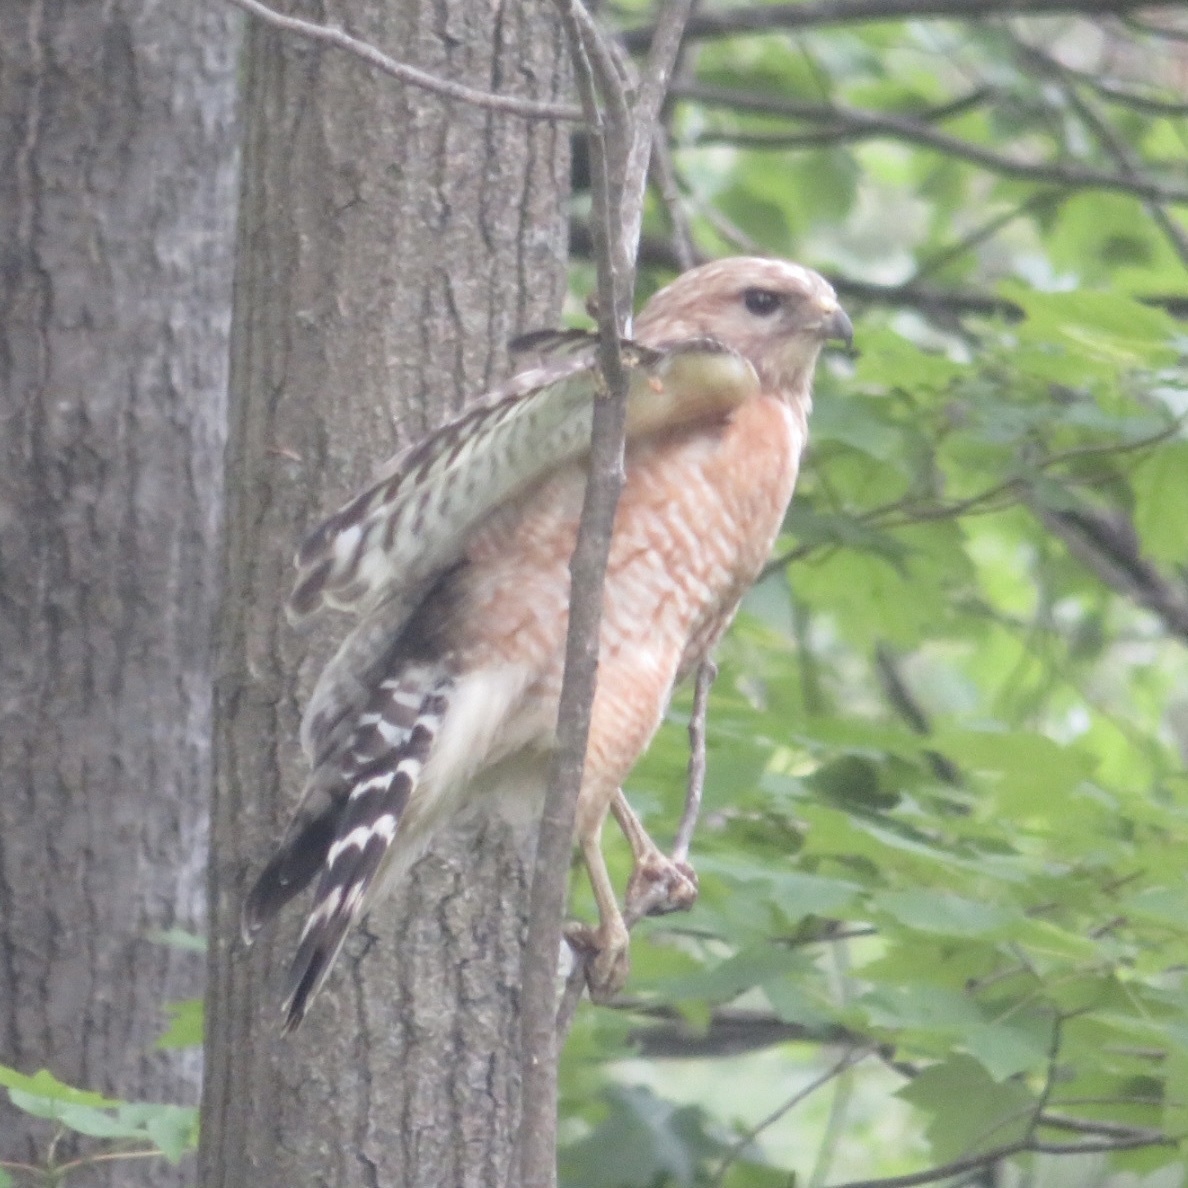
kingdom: Animalia
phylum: Chordata
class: Aves
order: Accipitriformes
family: Accipitridae
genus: Buteo
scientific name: Buteo lineatus
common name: Red-shouldered hawk
